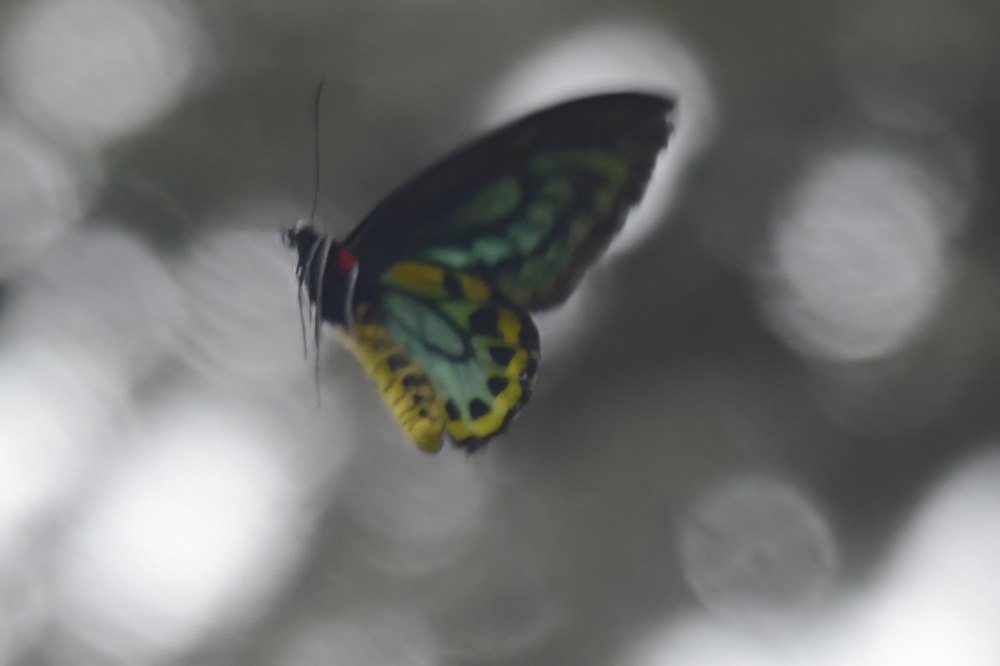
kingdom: Animalia
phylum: Arthropoda
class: Insecta
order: Lepidoptera
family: Papilionidae
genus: Ornithoptera
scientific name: Ornithoptera richmondia
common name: Richmond birdwing
